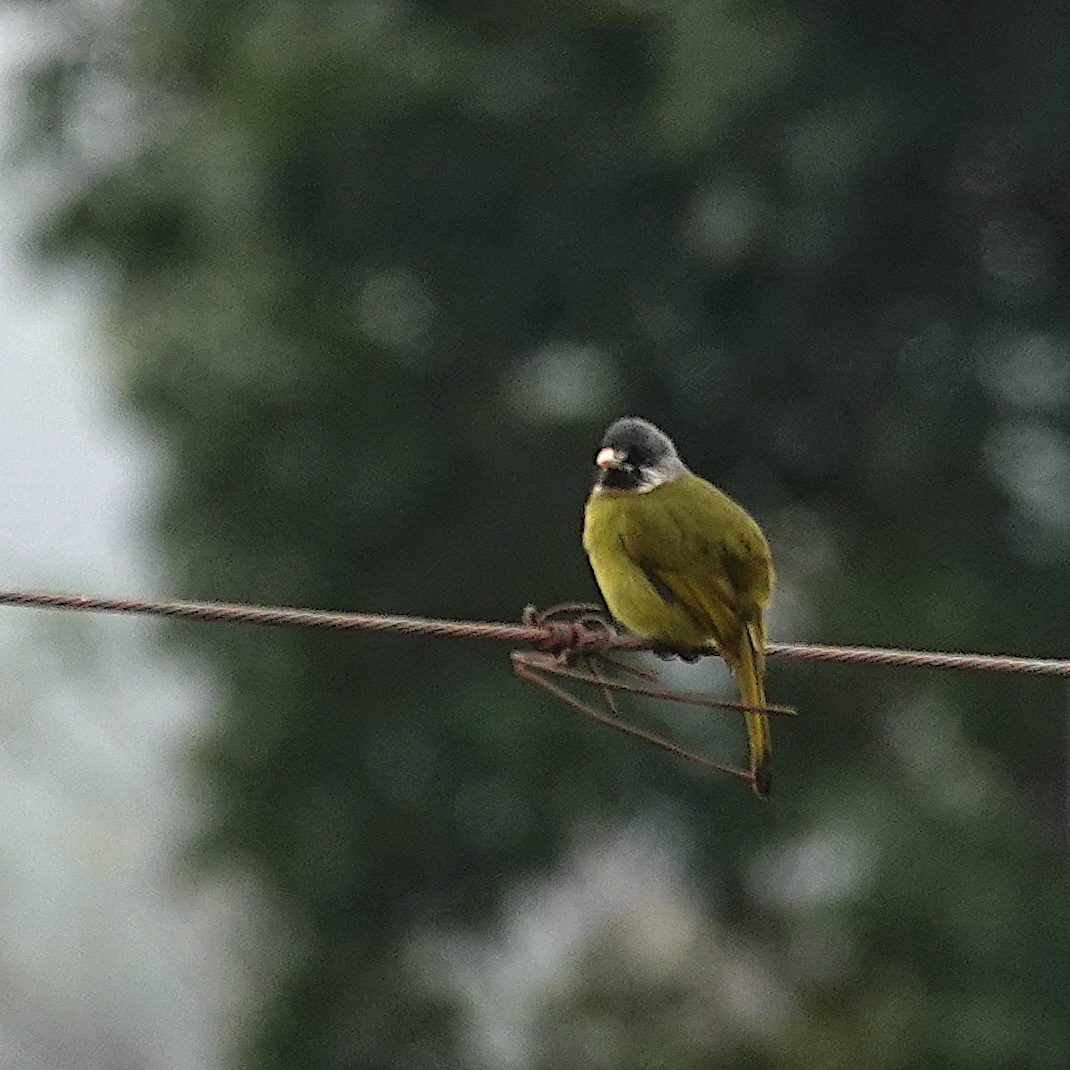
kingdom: Animalia
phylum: Chordata
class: Aves
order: Passeriformes
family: Pycnonotidae
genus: Spizixos
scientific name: Spizixos semitorques
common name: Collared finchbill
